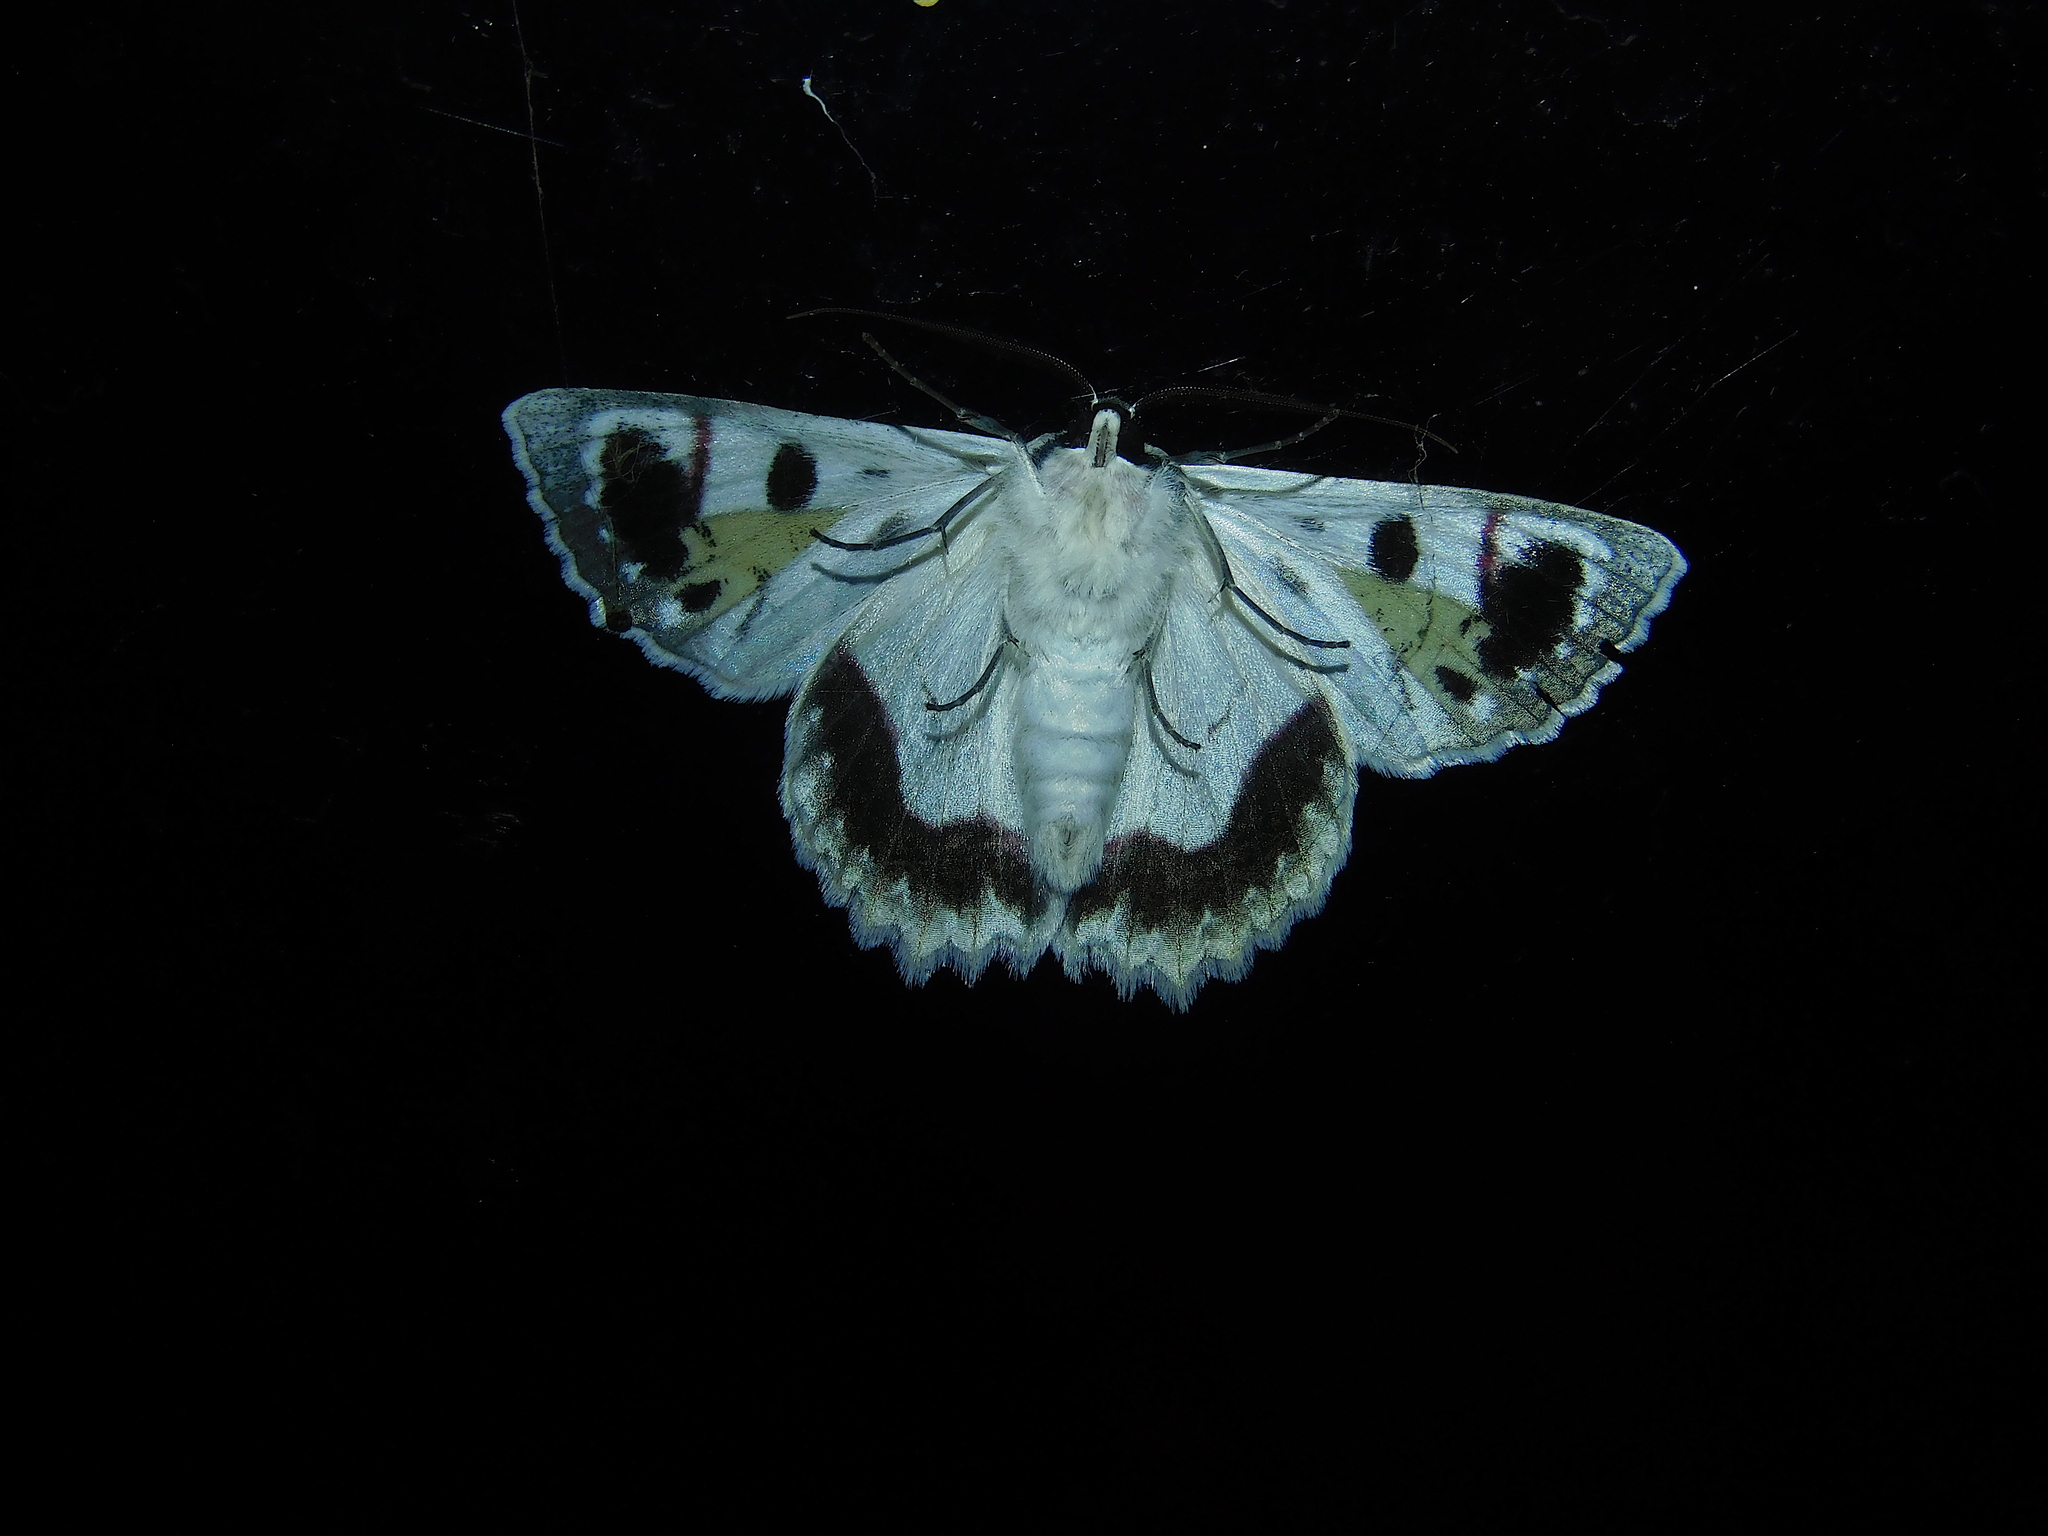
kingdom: Animalia
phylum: Arthropoda
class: Insecta
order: Lepidoptera
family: Geometridae
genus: Crypsiphona
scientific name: Crypsiphona
